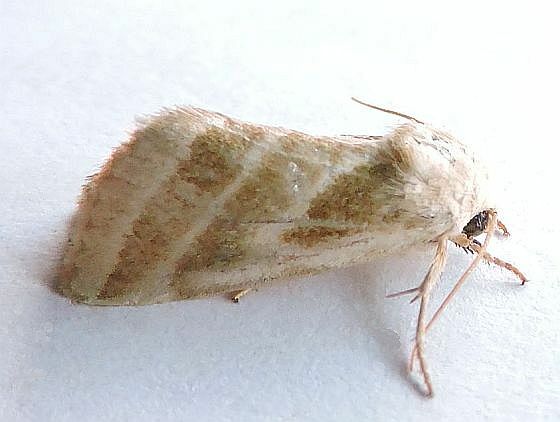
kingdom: Animalia
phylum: Arthropoda
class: Insecta
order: Lepidoptera
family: Noctuidae
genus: Schinia
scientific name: Schinia trifascia
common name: Three-lined flower moth
